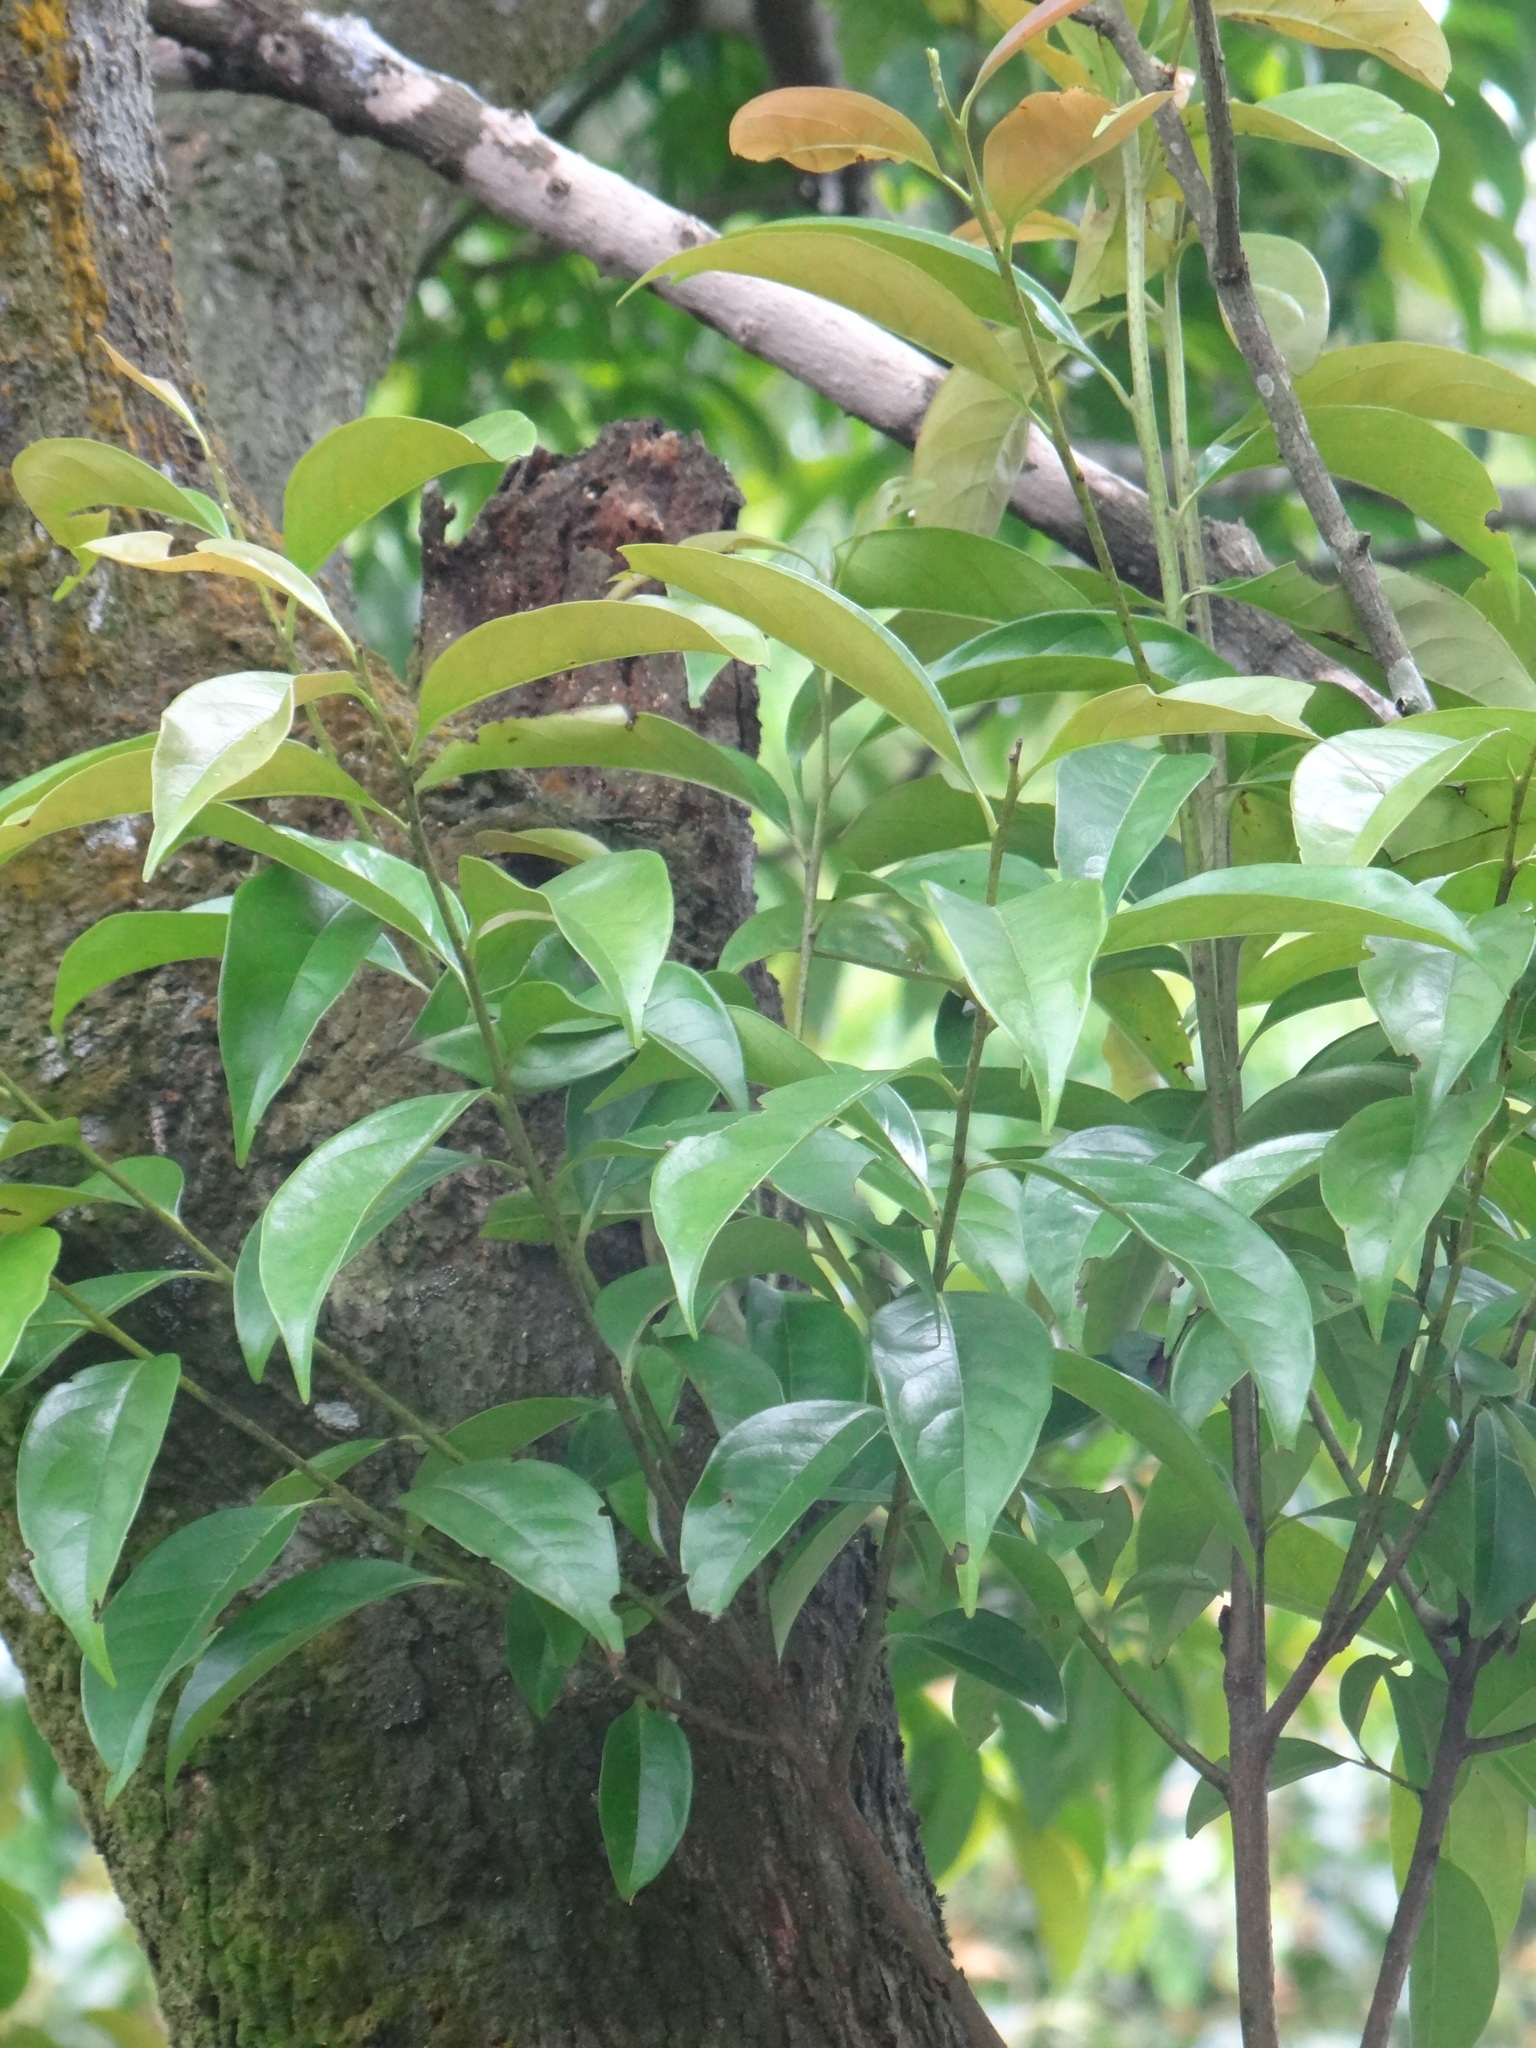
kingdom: Plantae
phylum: Tracheophyta
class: Magnoliopsida
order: Ericales
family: Ebenaceae
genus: Diospyros
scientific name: Diospyros morrisiana
